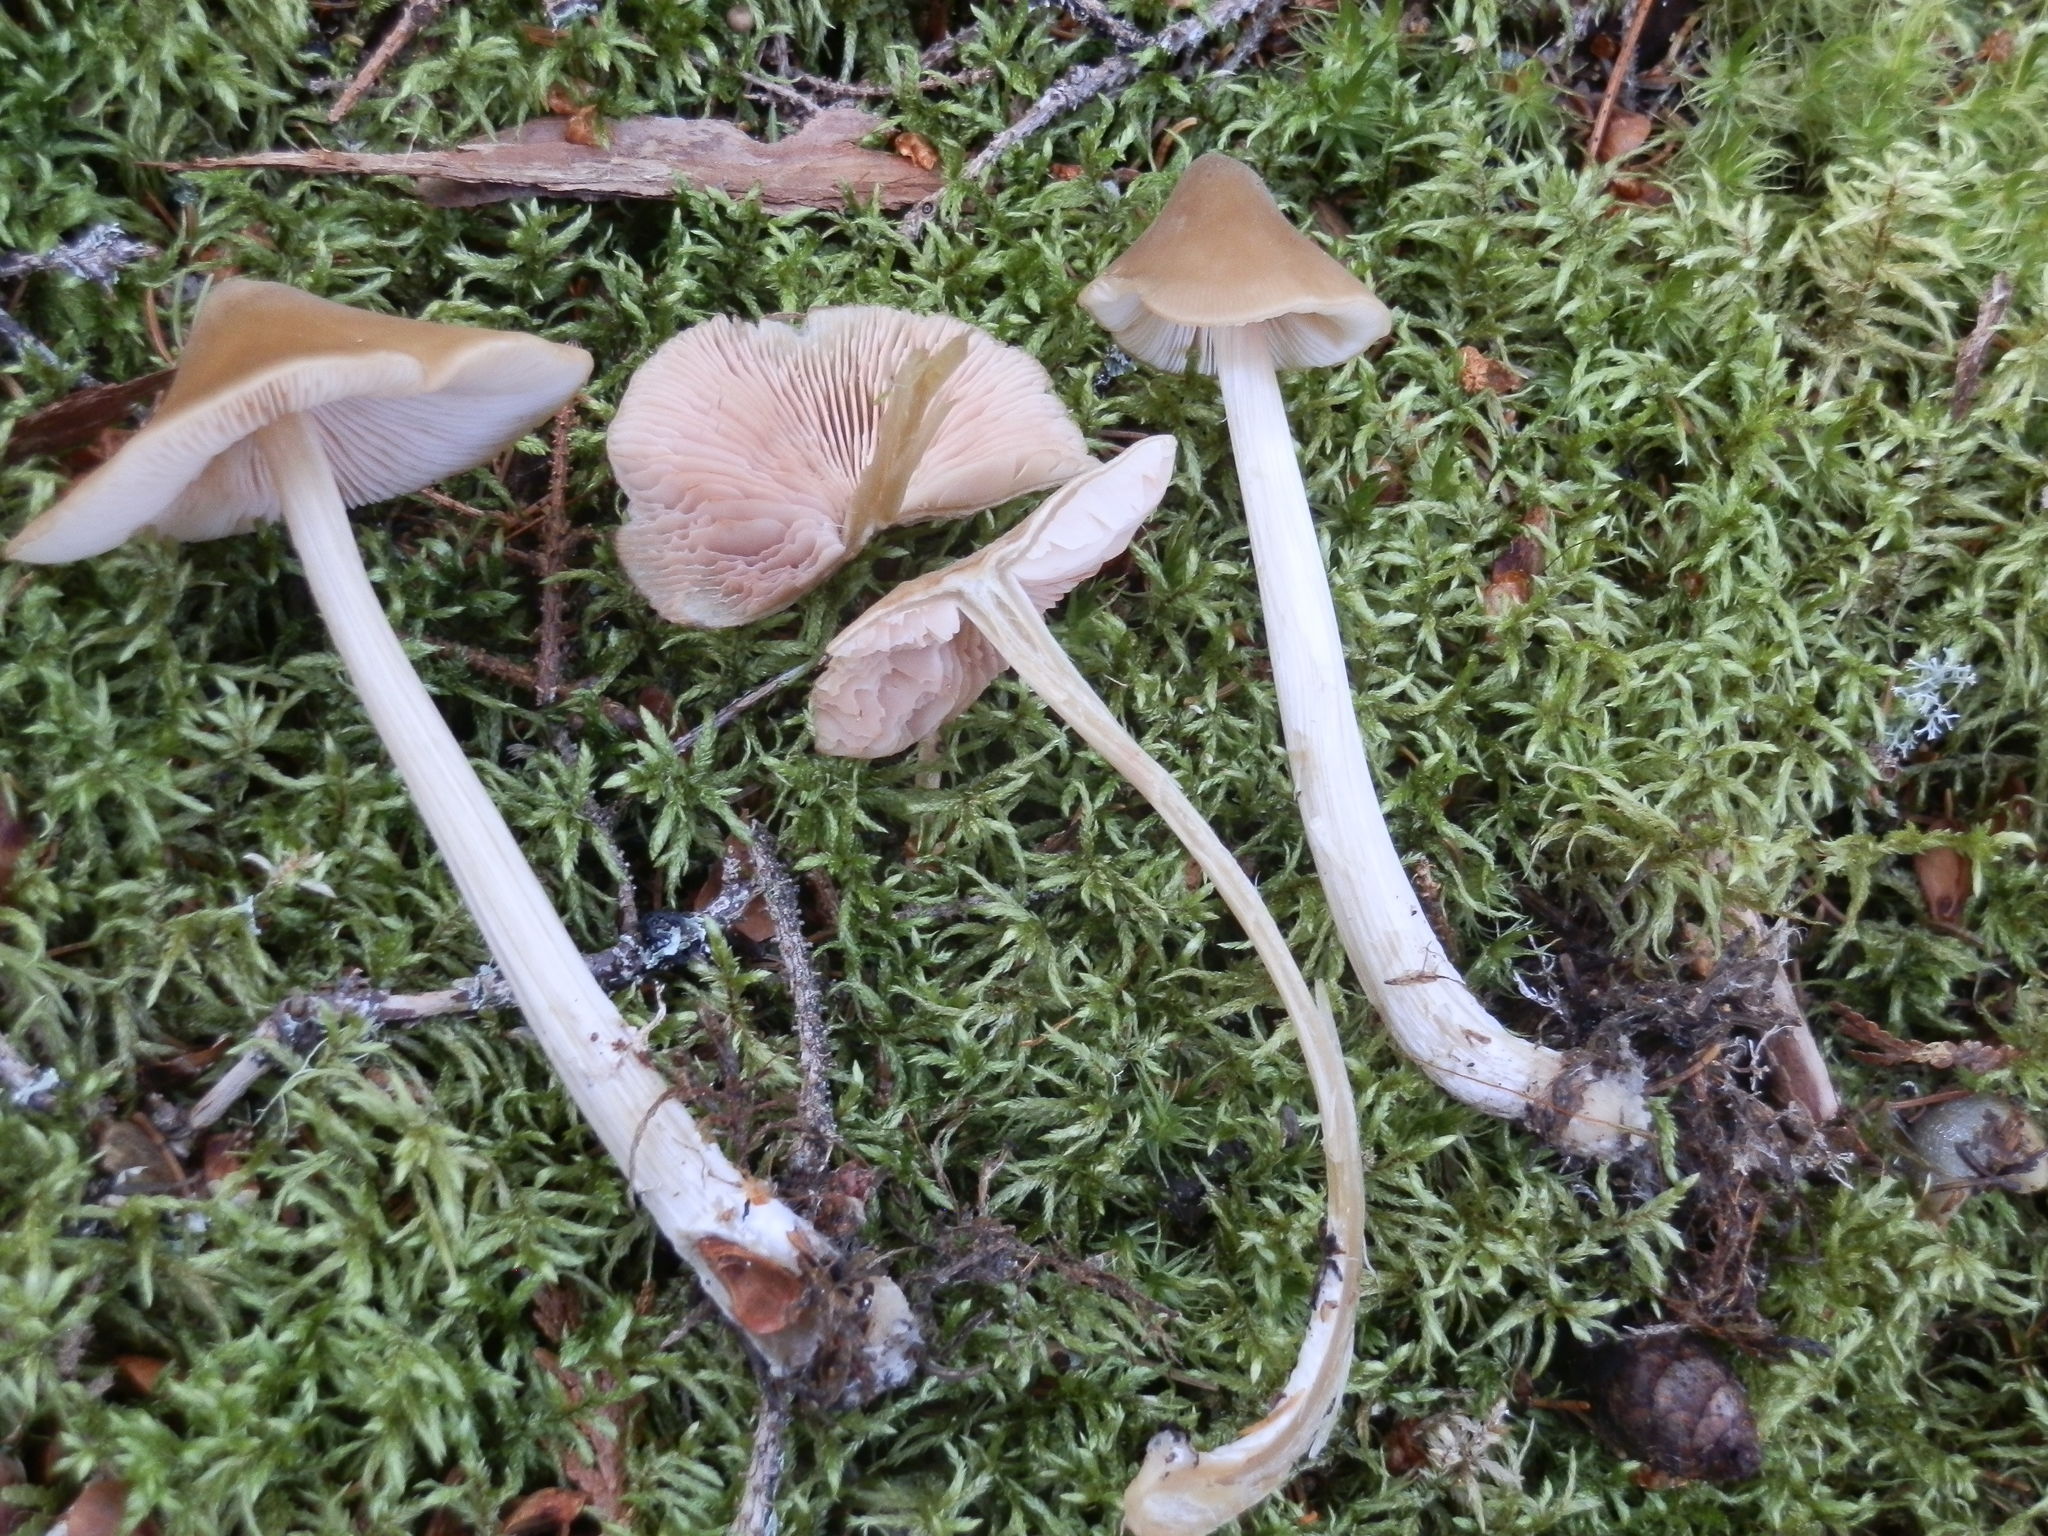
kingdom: Fungi
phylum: Basidiomycota
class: Agaricomycetes
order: Agaricales
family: Entolomataceae
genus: Entoloma
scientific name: Entoloma strictius
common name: Straight-stalked entoloma
